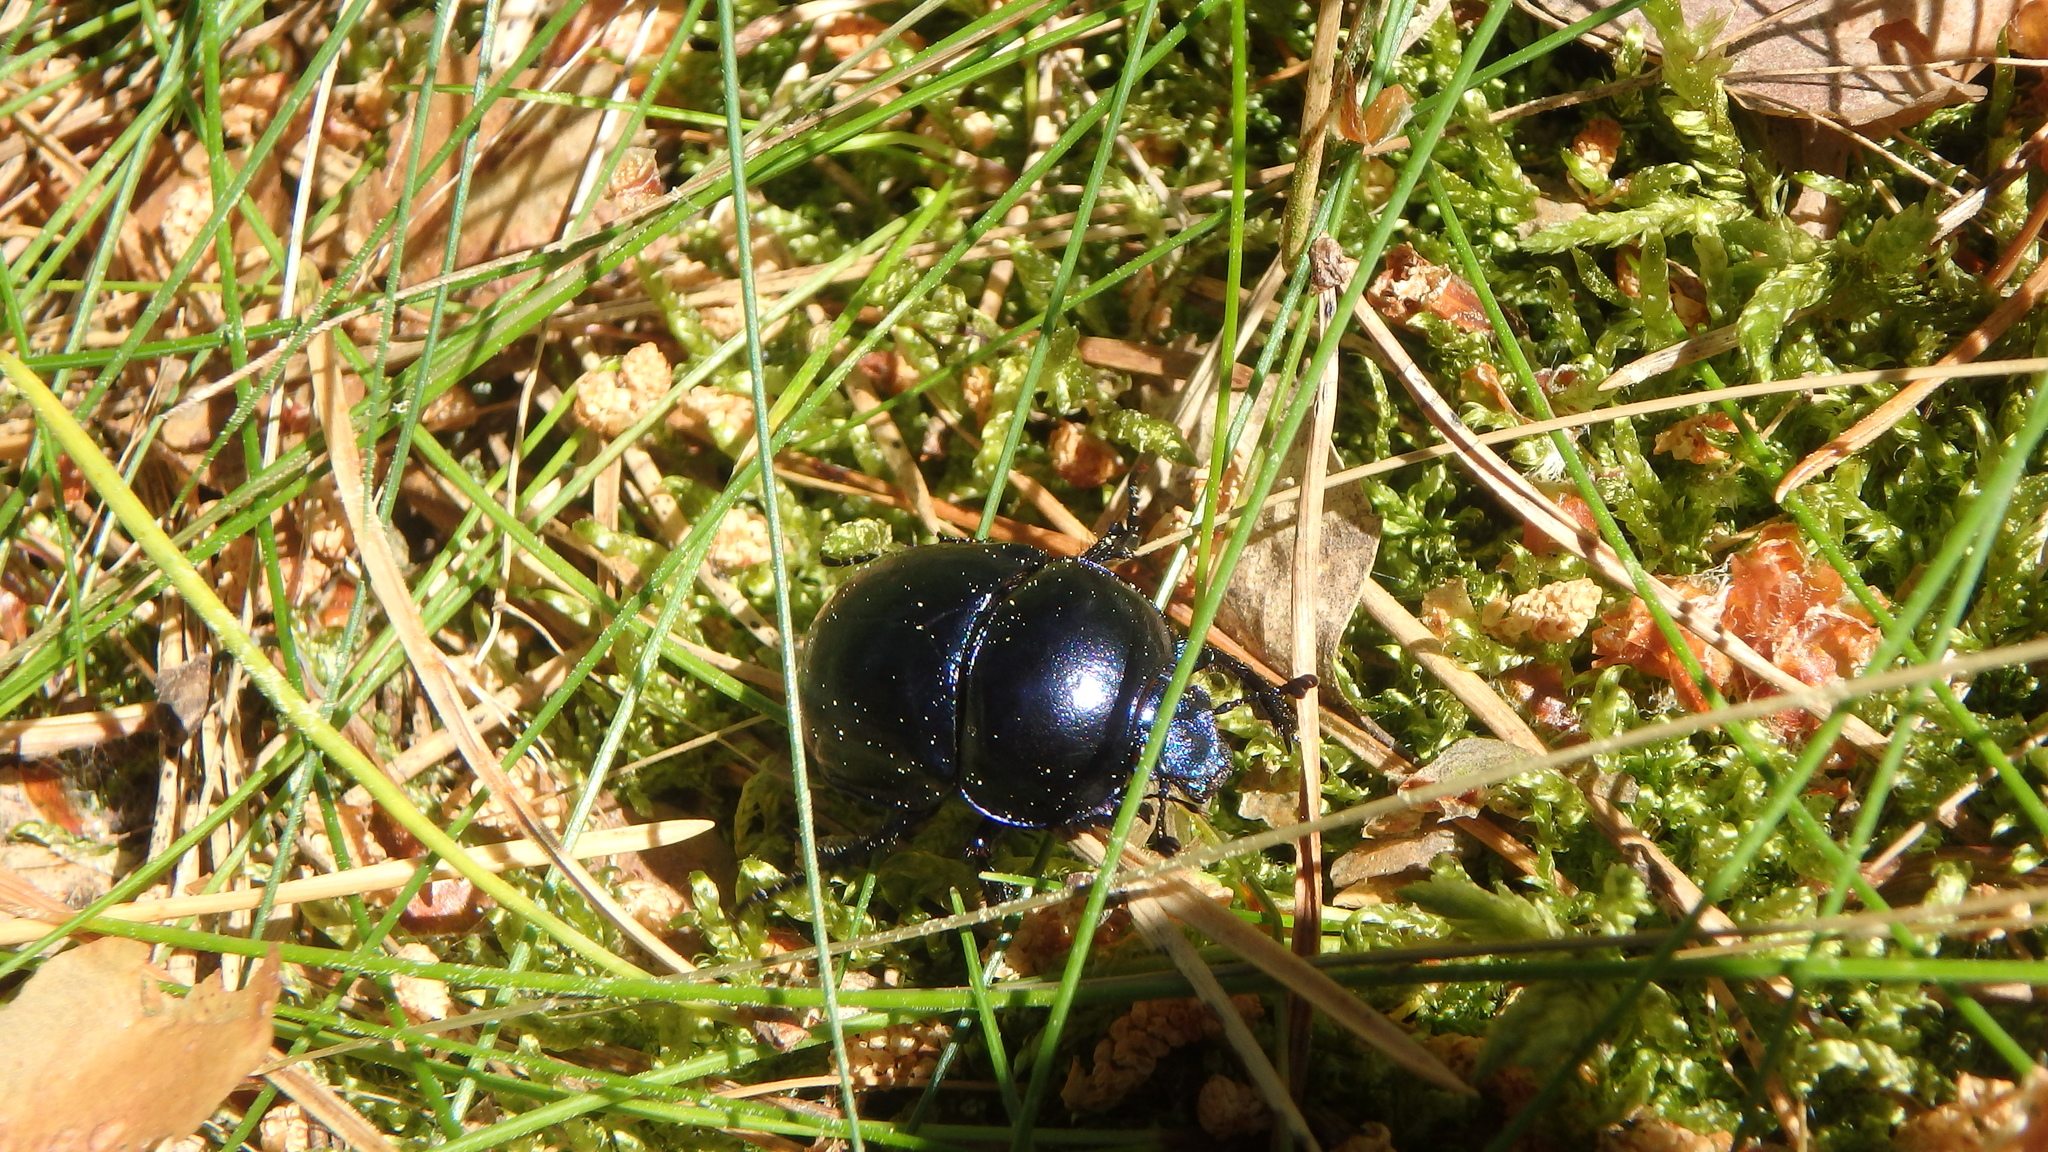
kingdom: Animalia
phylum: Arthropoda
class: Insecta
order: Coleoptera
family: Geotrupidae
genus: Trypocopris
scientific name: Trypocopris vernalis
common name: Spring dumbledor
